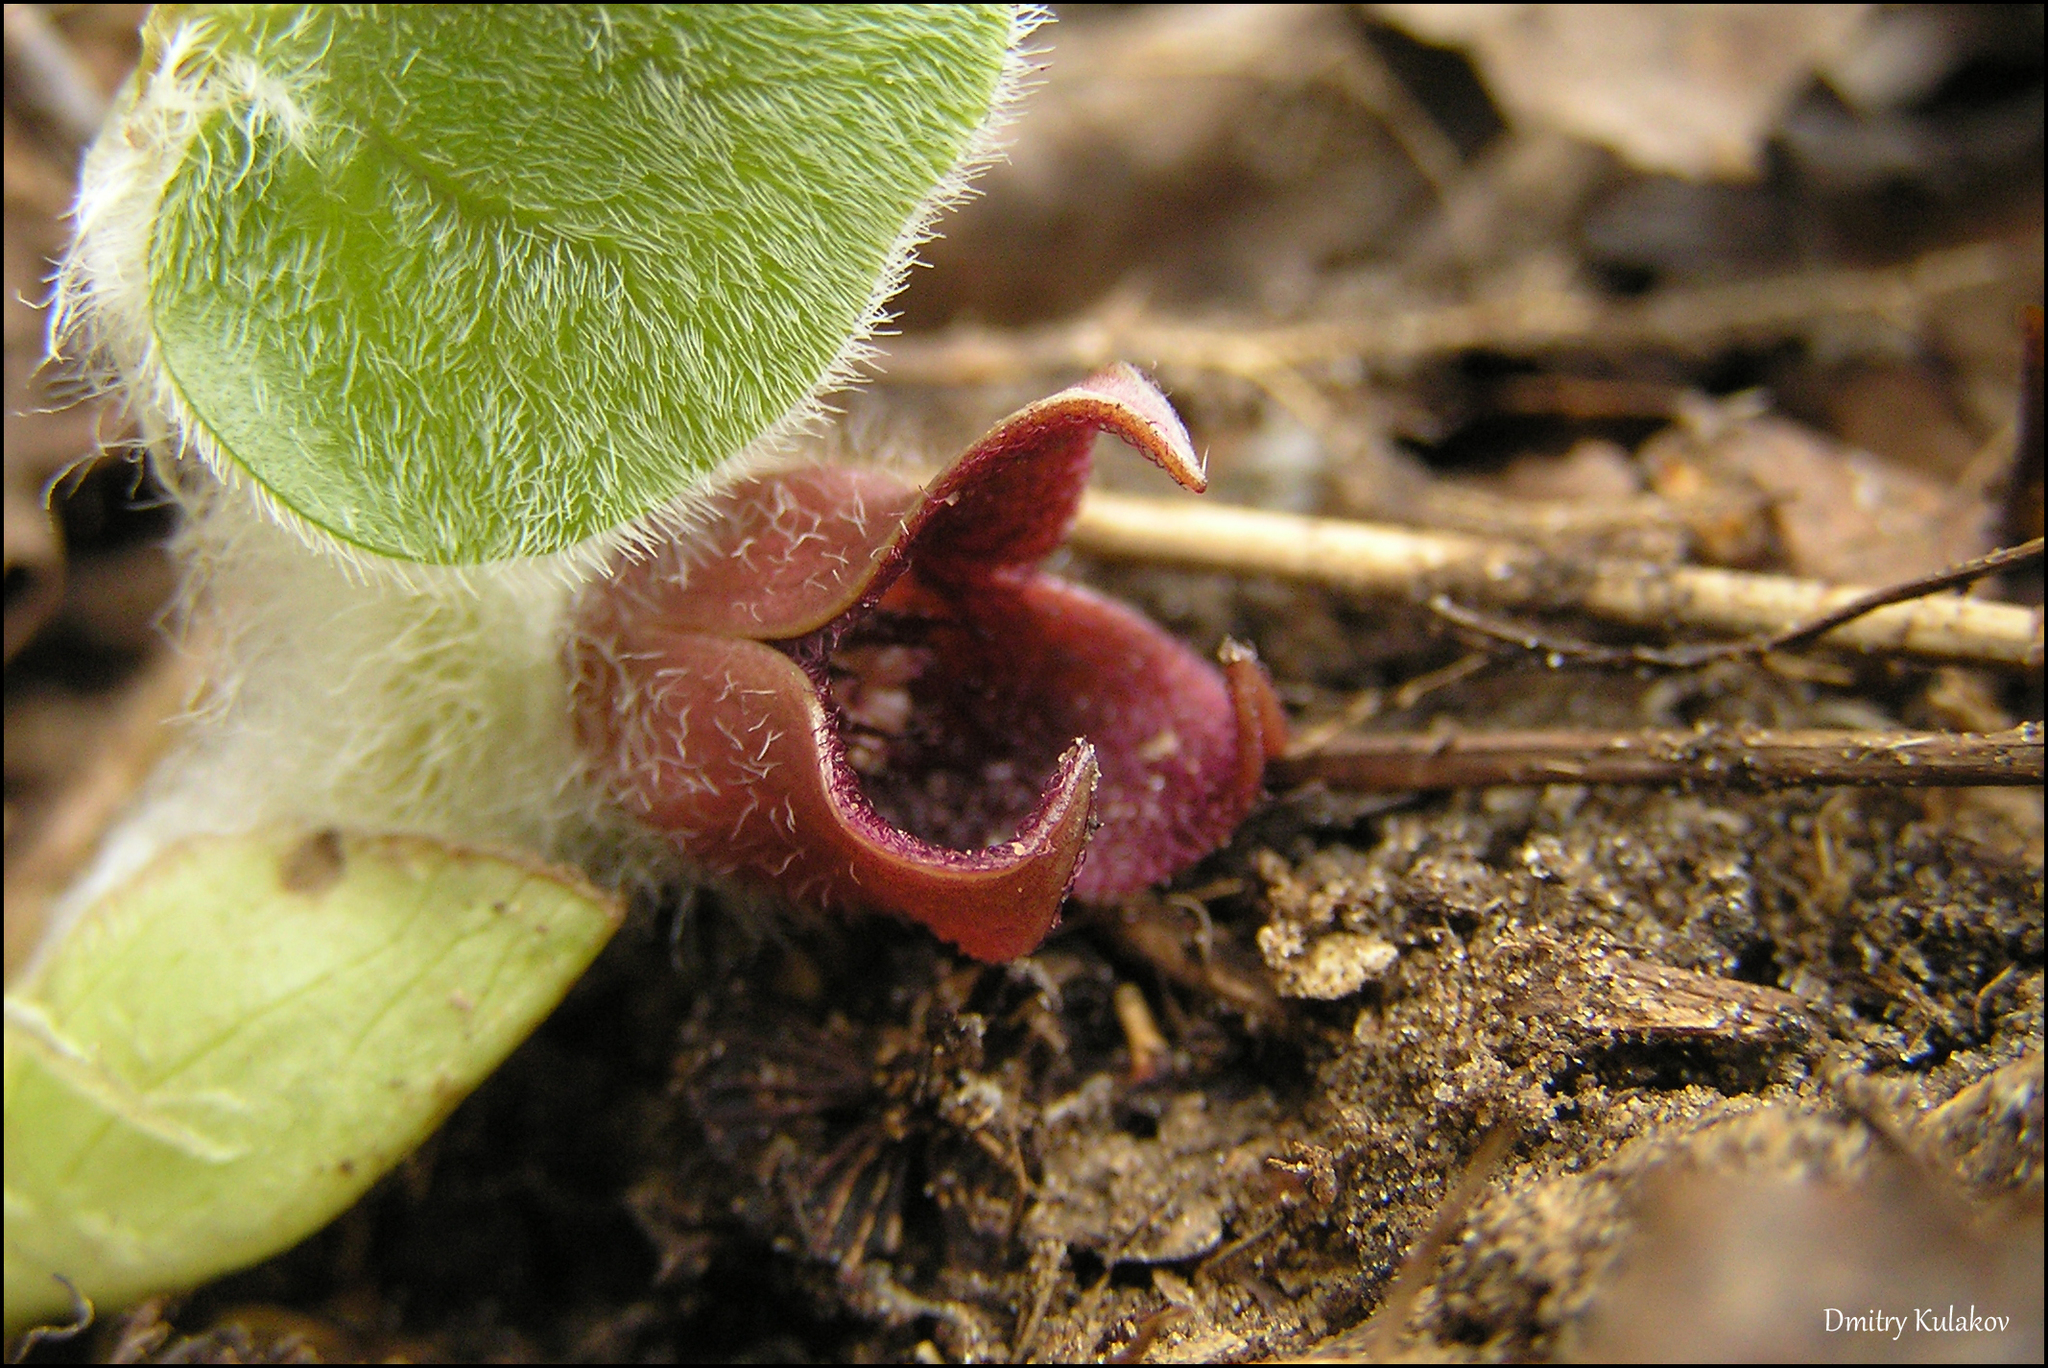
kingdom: Plantae
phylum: Tracheophyta
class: Magnoliopsida
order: Piperales
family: Aristolochiaceae
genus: Asarum
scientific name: Asarum europaeum
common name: Asarabacca
